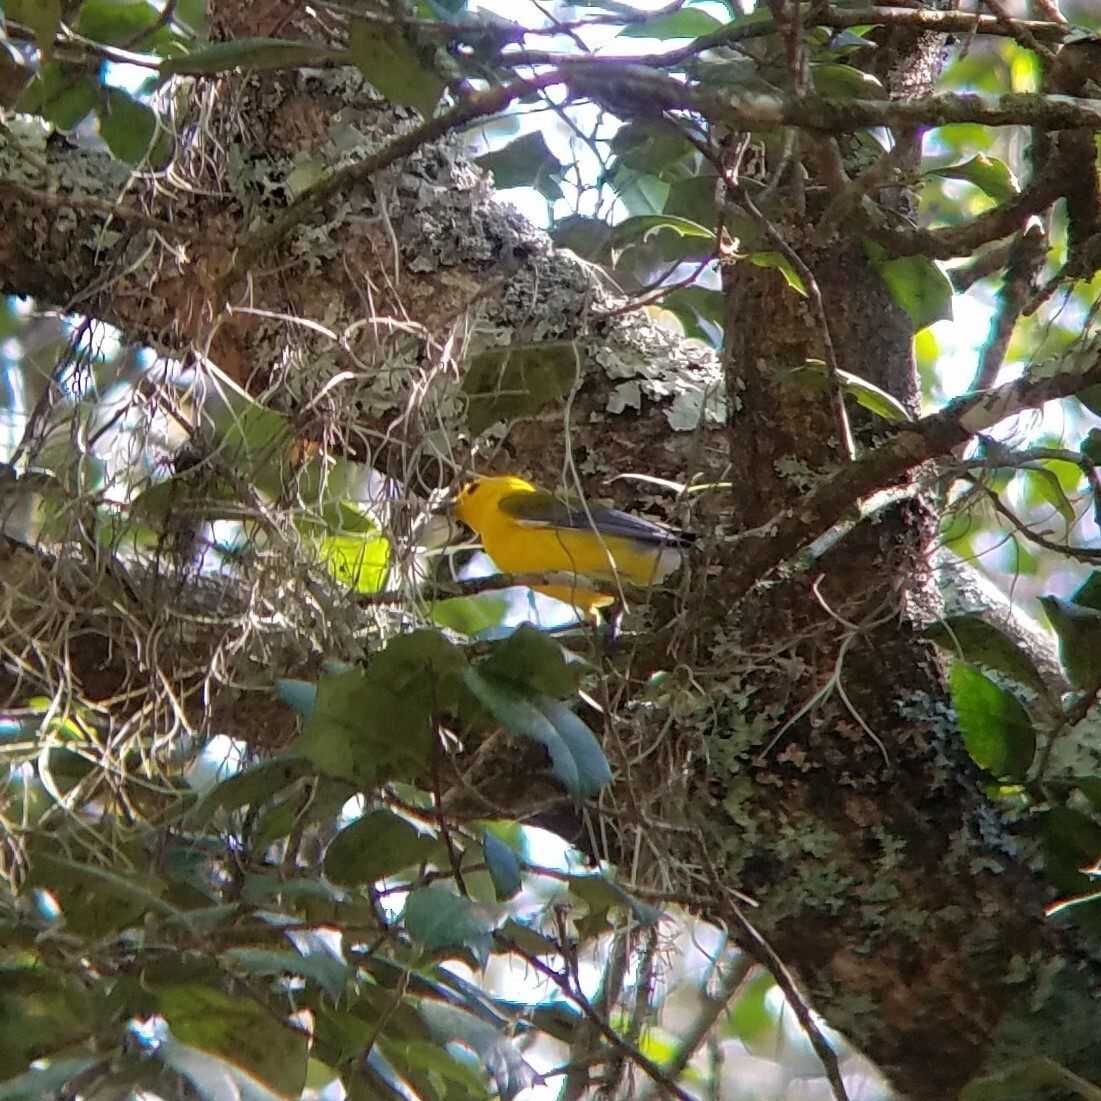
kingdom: Animalia
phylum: Chordata
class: Aves
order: Passeriformes
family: Parulidae
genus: Protonotaria
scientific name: Protonotaria citrea
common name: Prothonotary warbler
